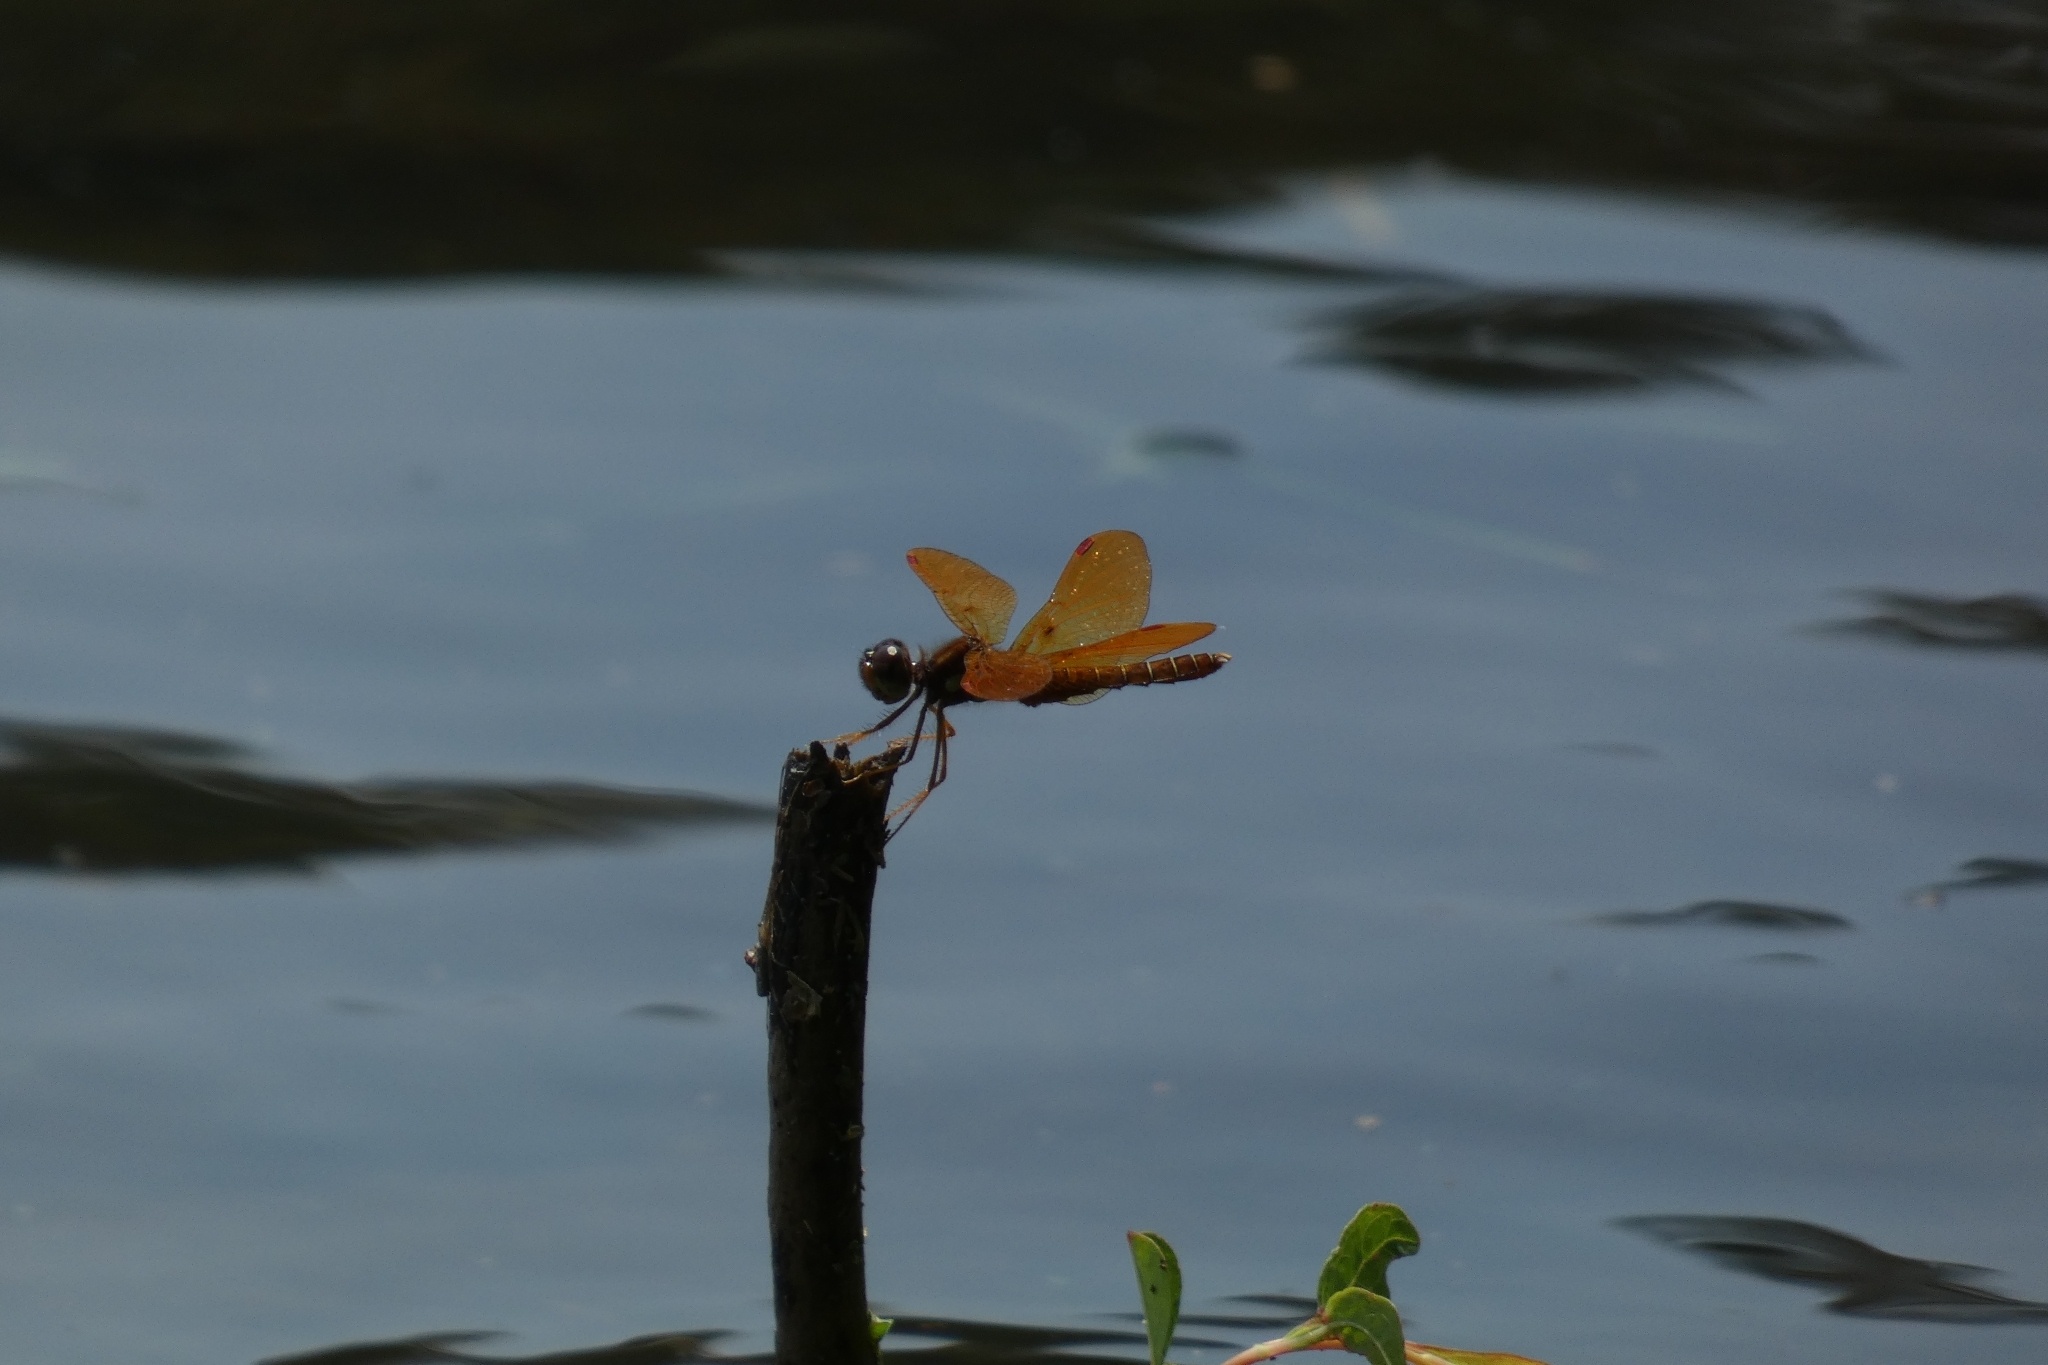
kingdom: Animalia
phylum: Arthropoda
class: Insecta
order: Odonata
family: Libellulidae
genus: Perithemis
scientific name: Perithemis tenera
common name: Eastern amberwing
